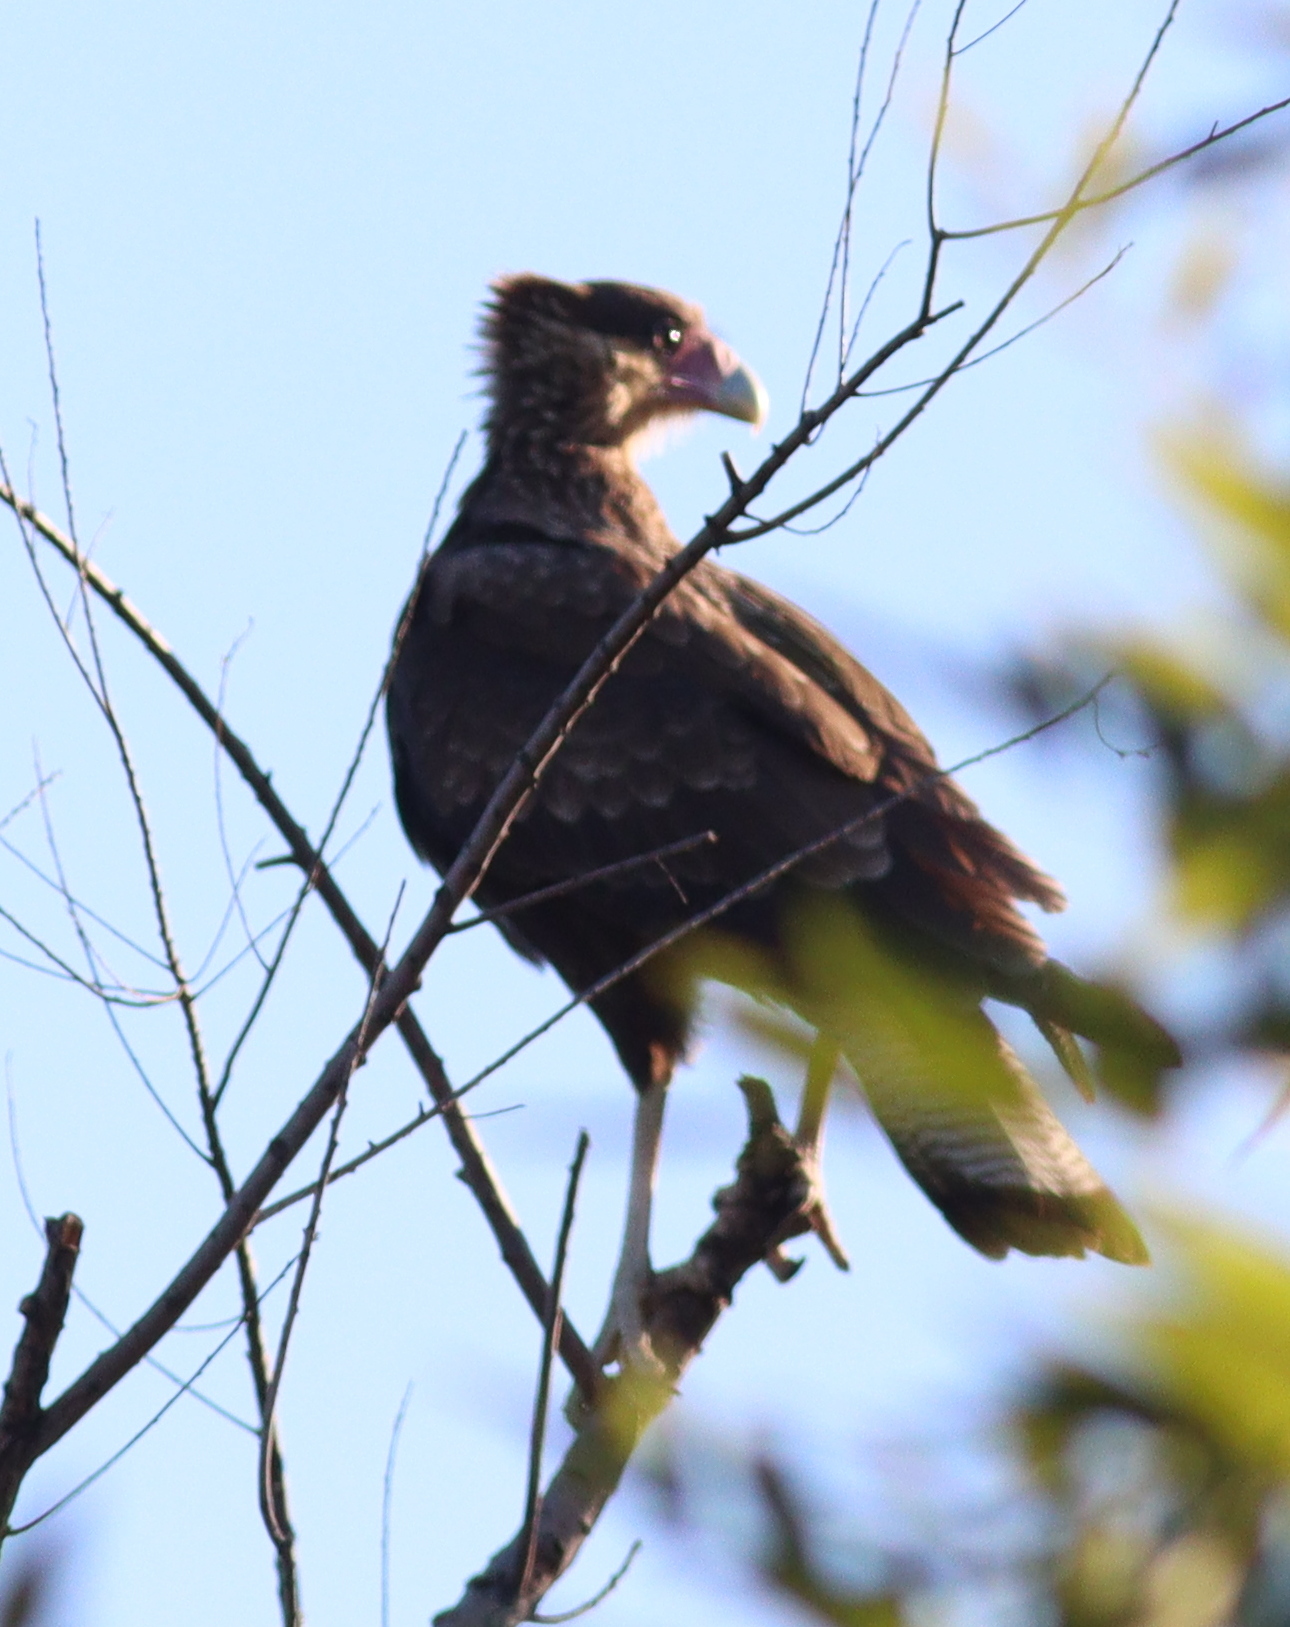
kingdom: Animalia
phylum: Chordata
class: Aves
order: Falconiformes
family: Falconidae
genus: Caracara
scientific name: Caracara plancus
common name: Southern caracara
